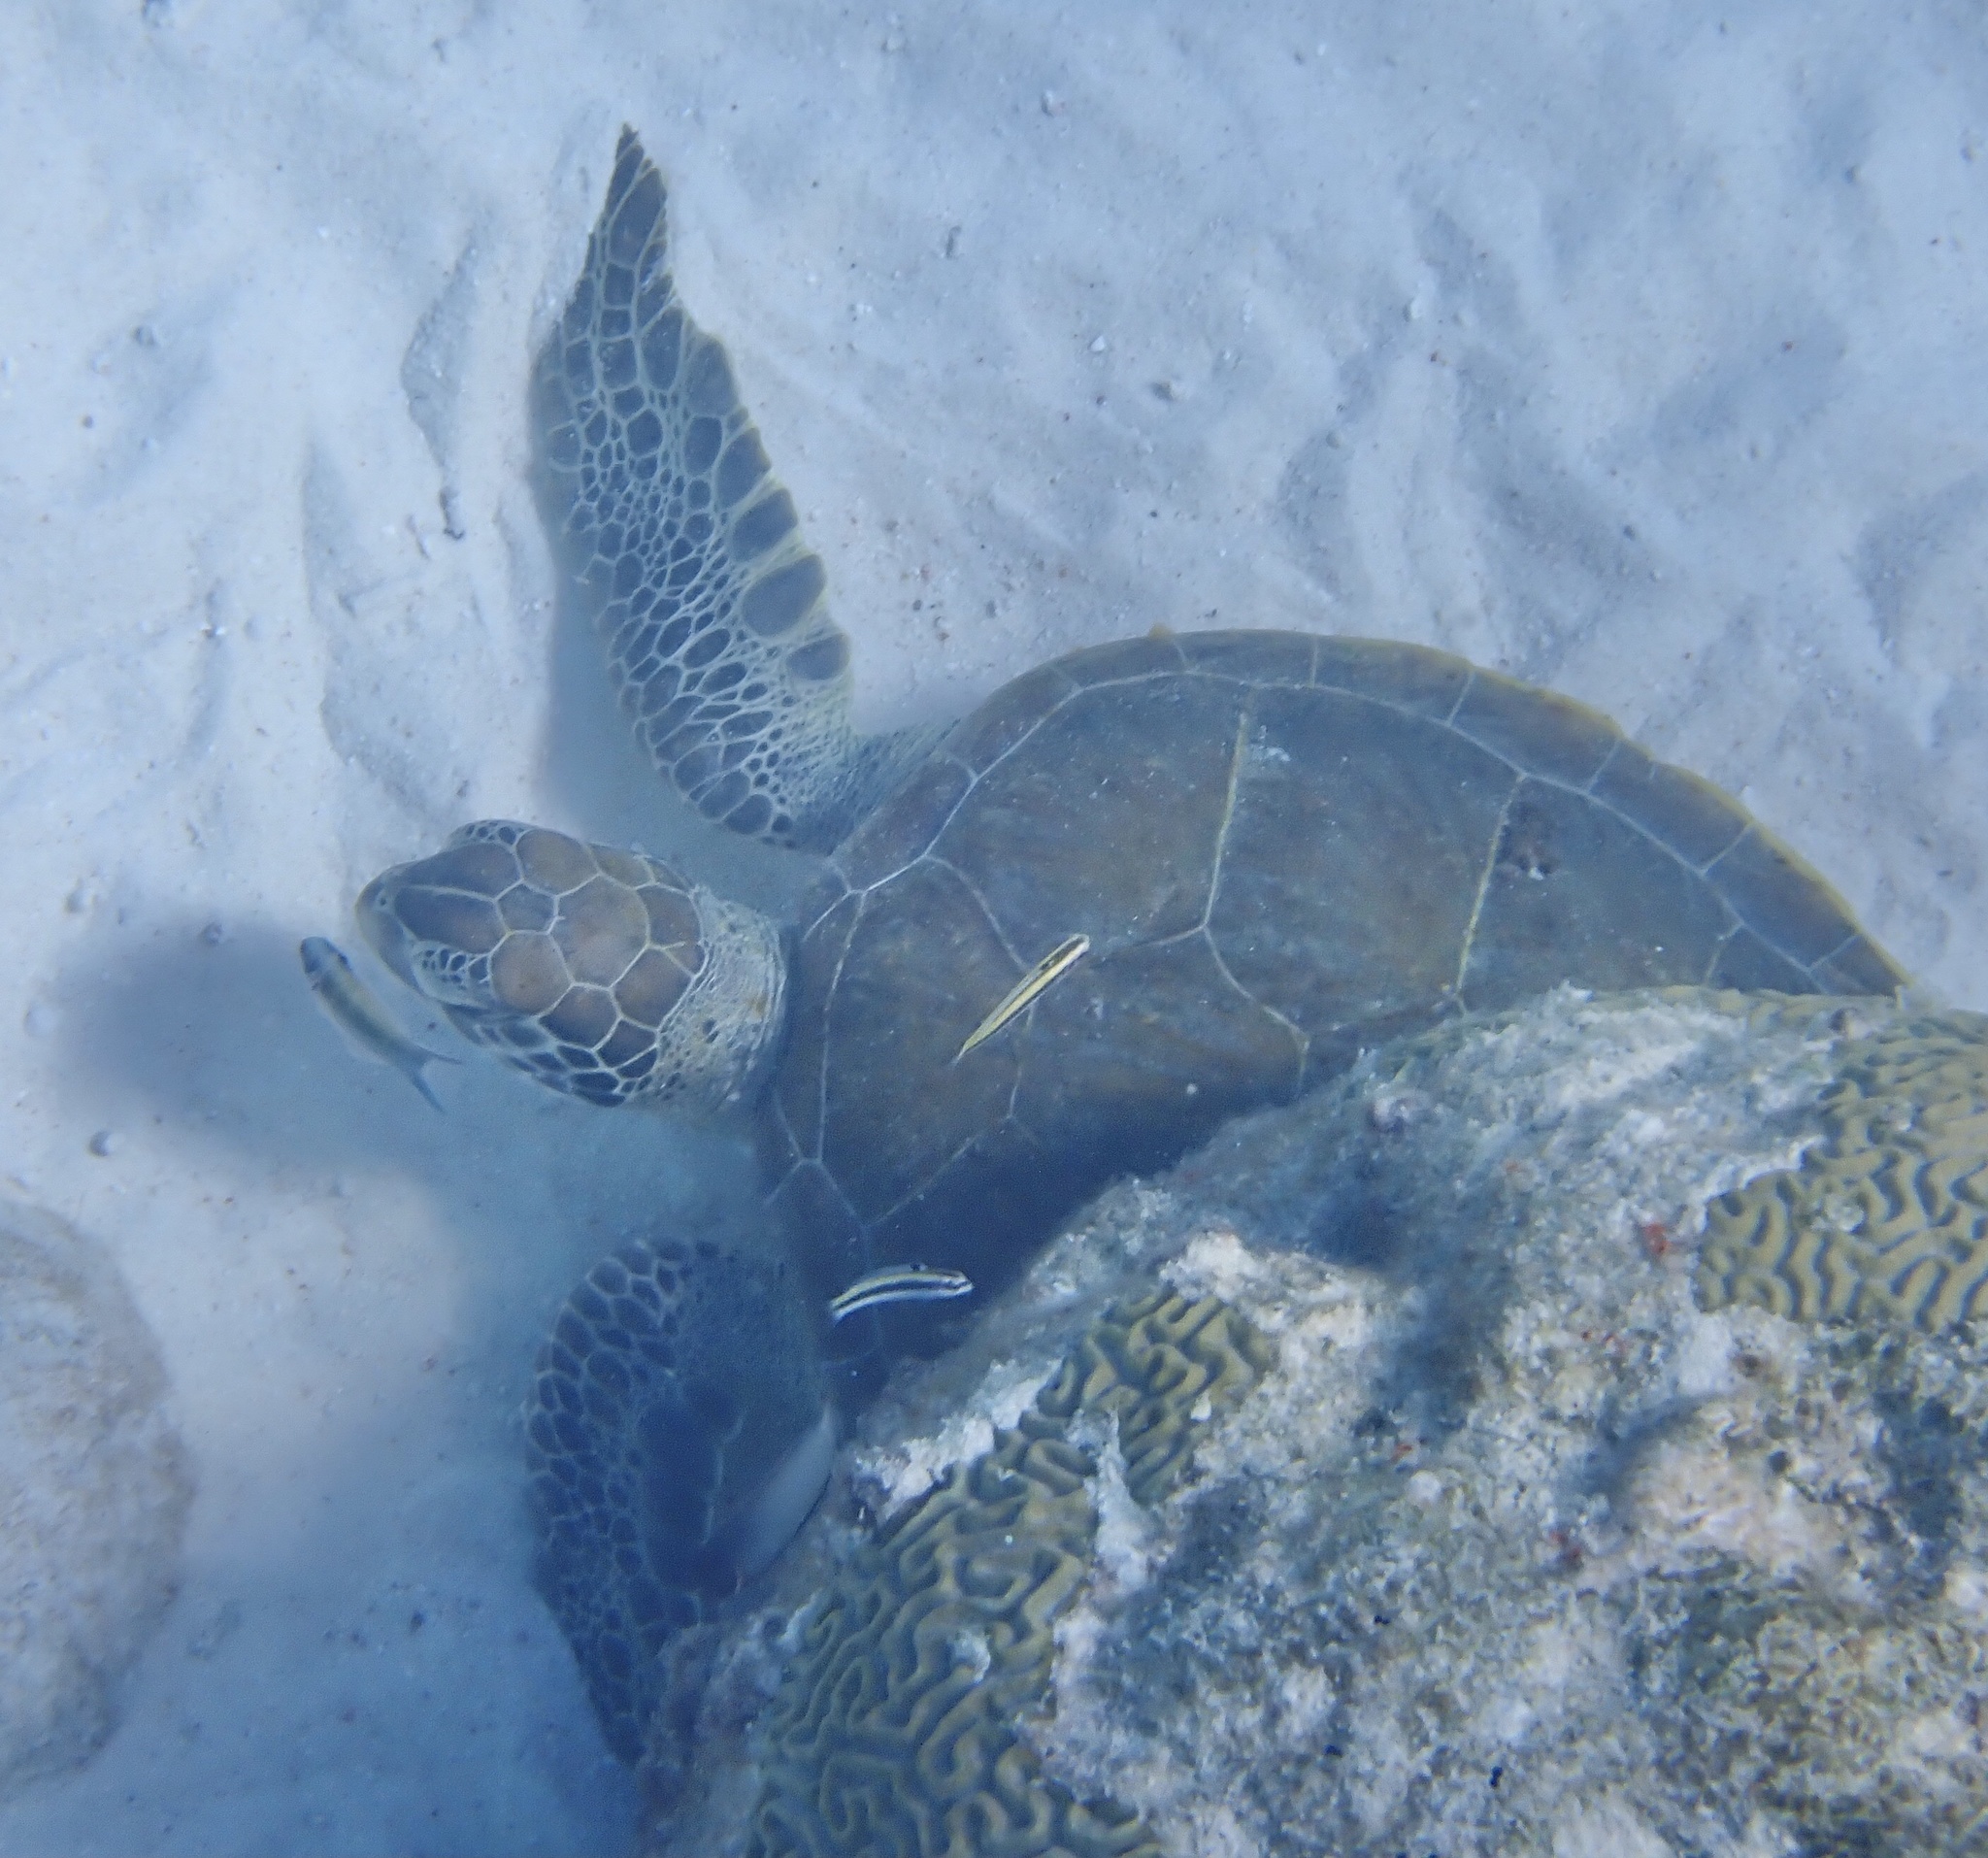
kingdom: Animalia
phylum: Chordata
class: Testudines
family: Cheloniidae
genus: Chelonia
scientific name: Chelonia mydas
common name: Green turtle
